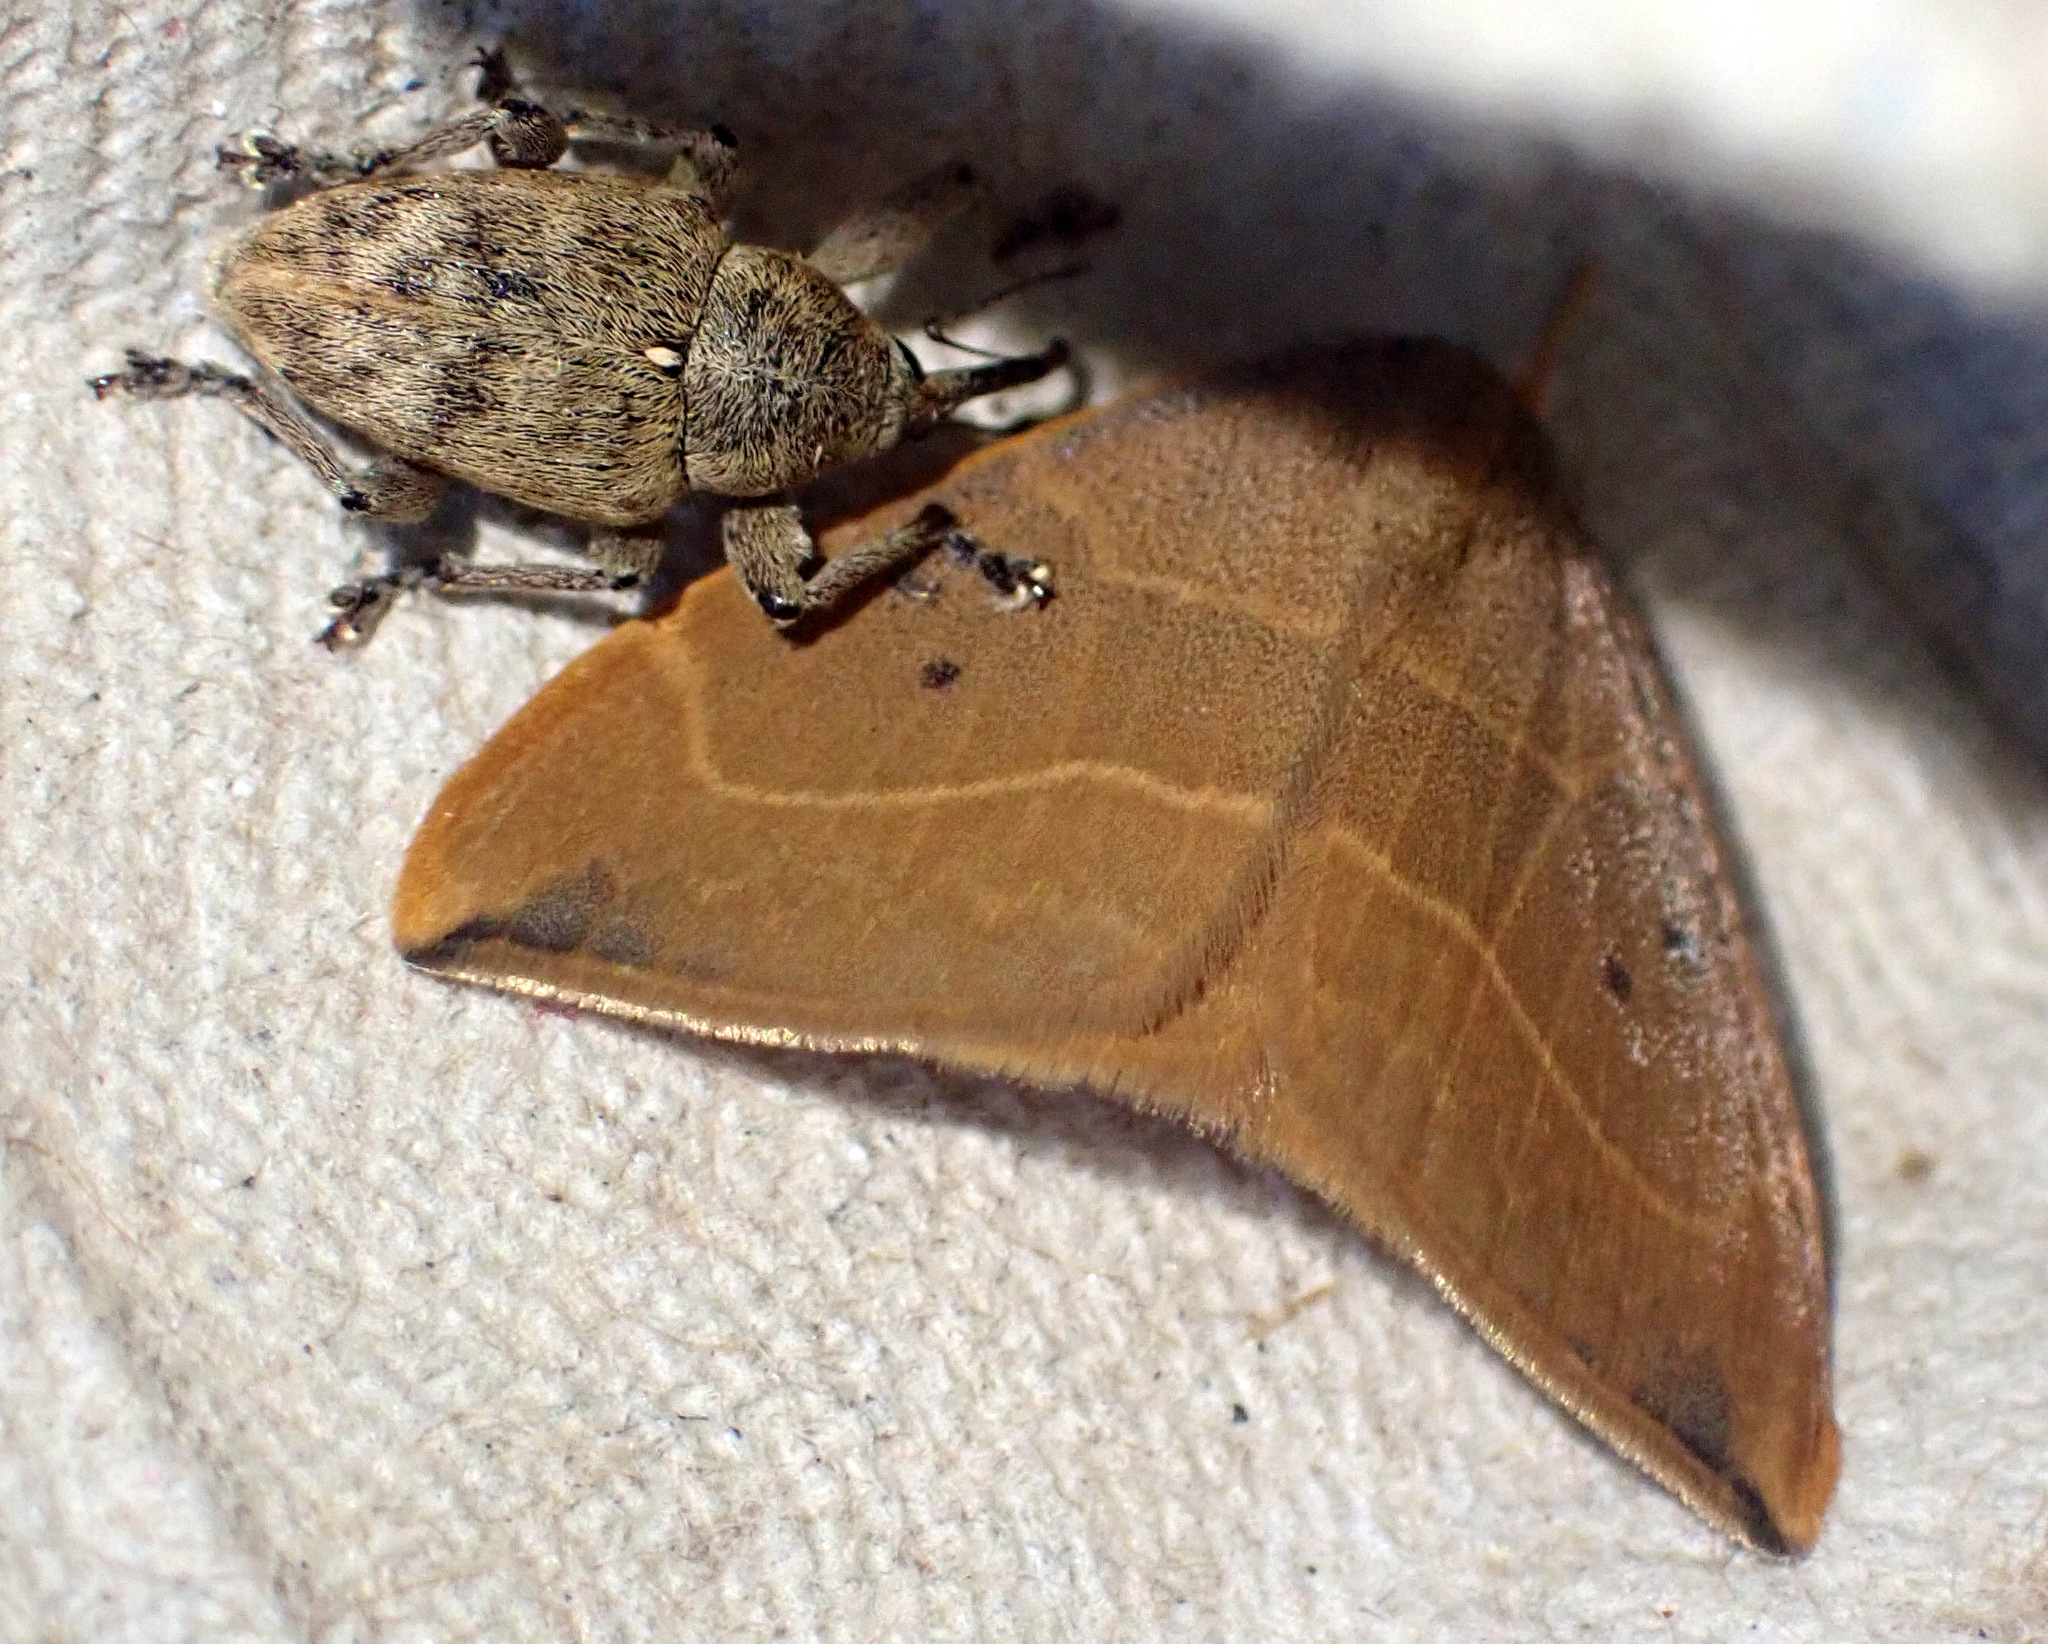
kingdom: Animalia
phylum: Arthropoda
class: Insecta
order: Lepidoptera
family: Drepanidae
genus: Watsonalla
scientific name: Watsonalla binaria
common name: Oak hook-tip
